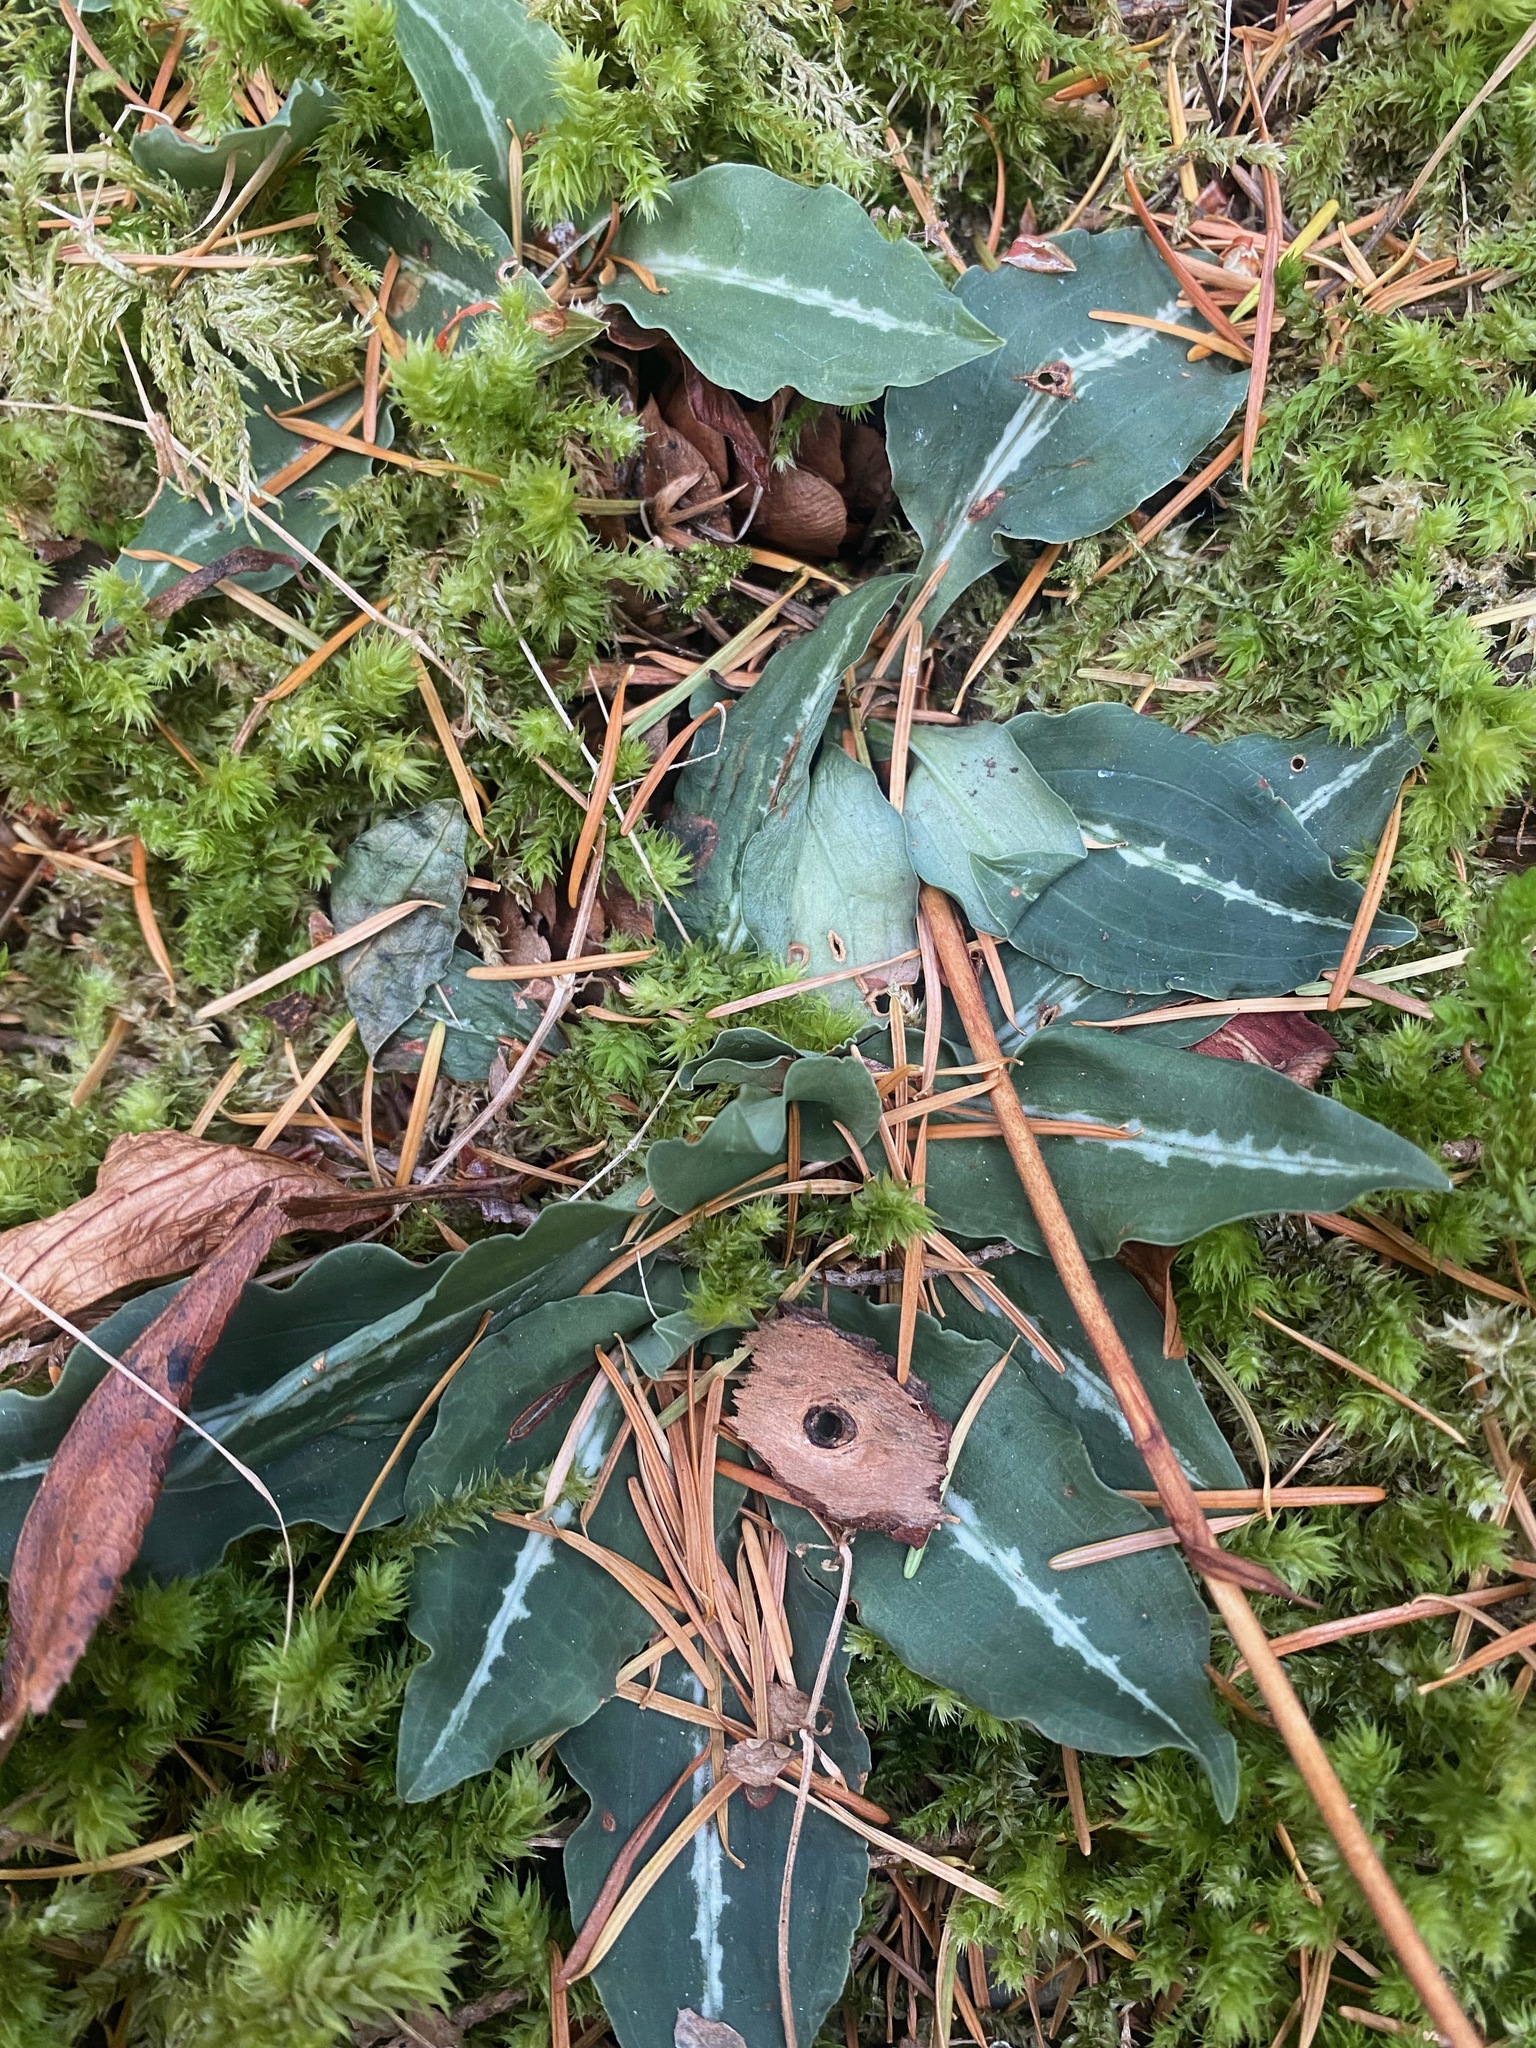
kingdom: Plantae
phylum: Tracheophyta
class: Liliopsida
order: Asparagales
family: Orchidaceae
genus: Goodyera
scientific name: Goodyera oblongifolia
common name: Giant rattlesnake-plantain
